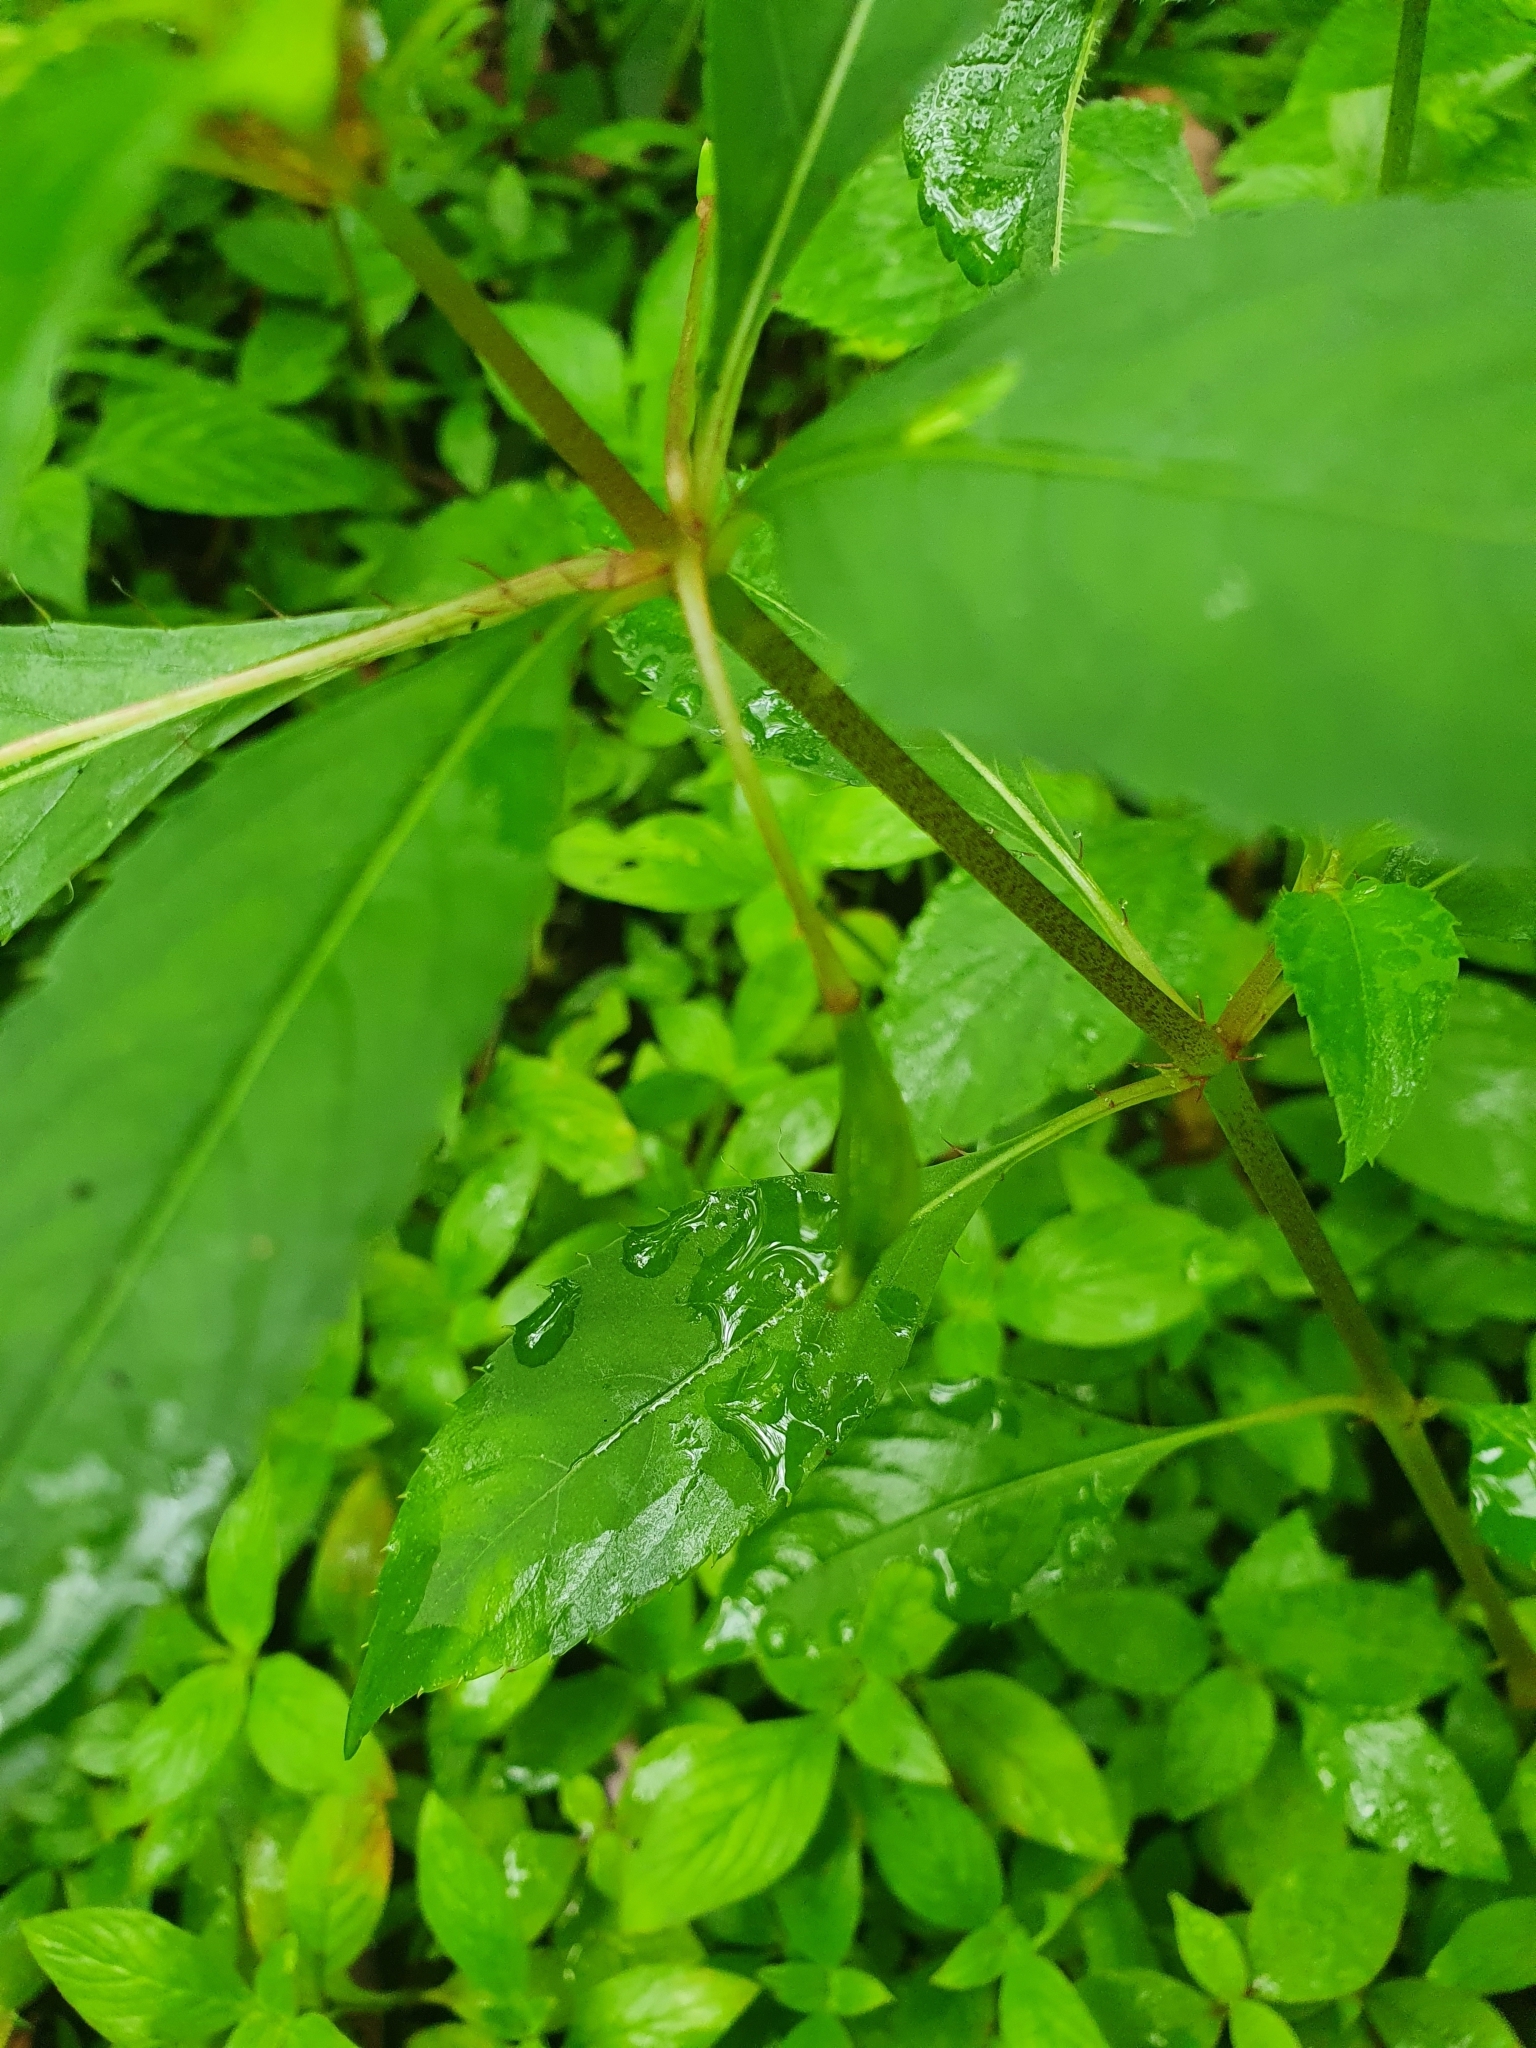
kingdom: Plantae
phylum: Tracheophyta
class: Magnoliopsida
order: Ericales
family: Balsaminaceae
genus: Impatiens
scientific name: Impatiens platypetala
